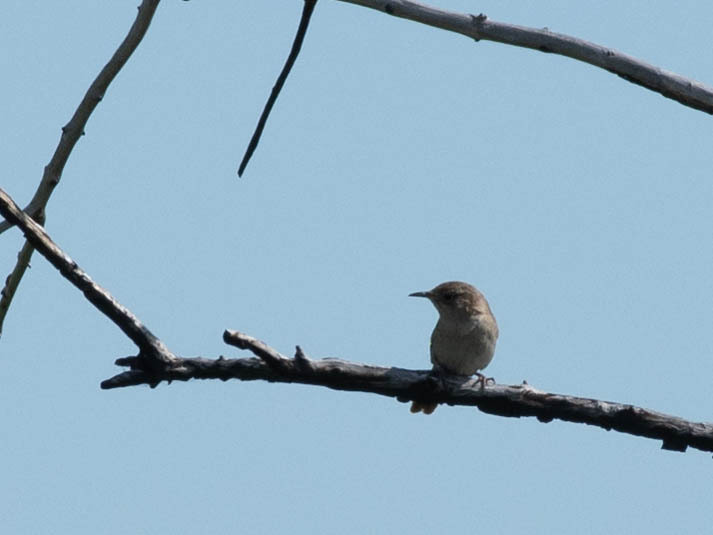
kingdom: Animalia
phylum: Chordata
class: Aves
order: Passeriformes
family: Troglodytidae
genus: Troglodytes
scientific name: Troglodytes aedon
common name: House wren
